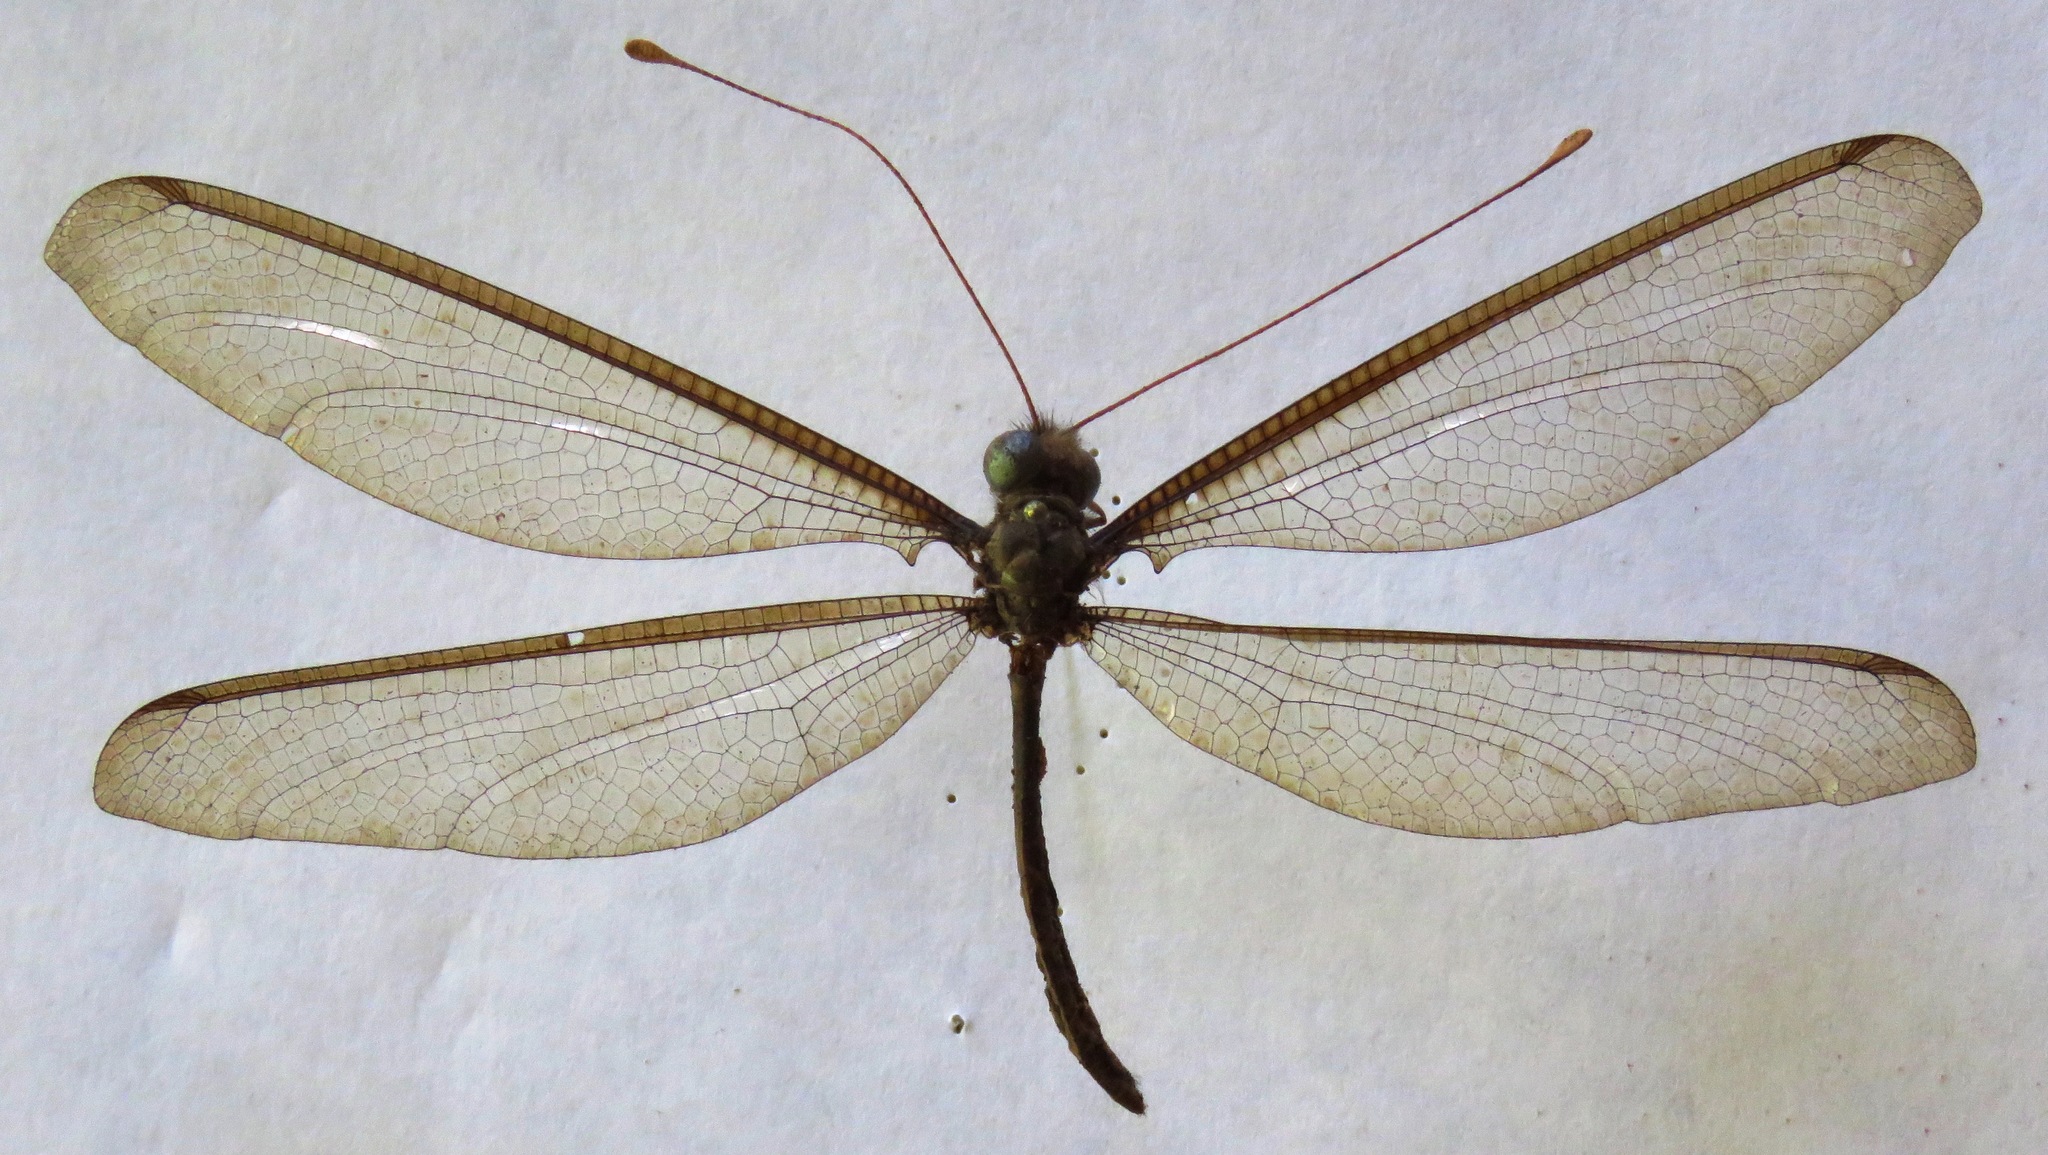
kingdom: Animalia
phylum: Arthropoda
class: Insecta
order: Neuroptera
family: Ascalaphidae
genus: Haploglenius
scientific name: Haploglenius flavicornis
